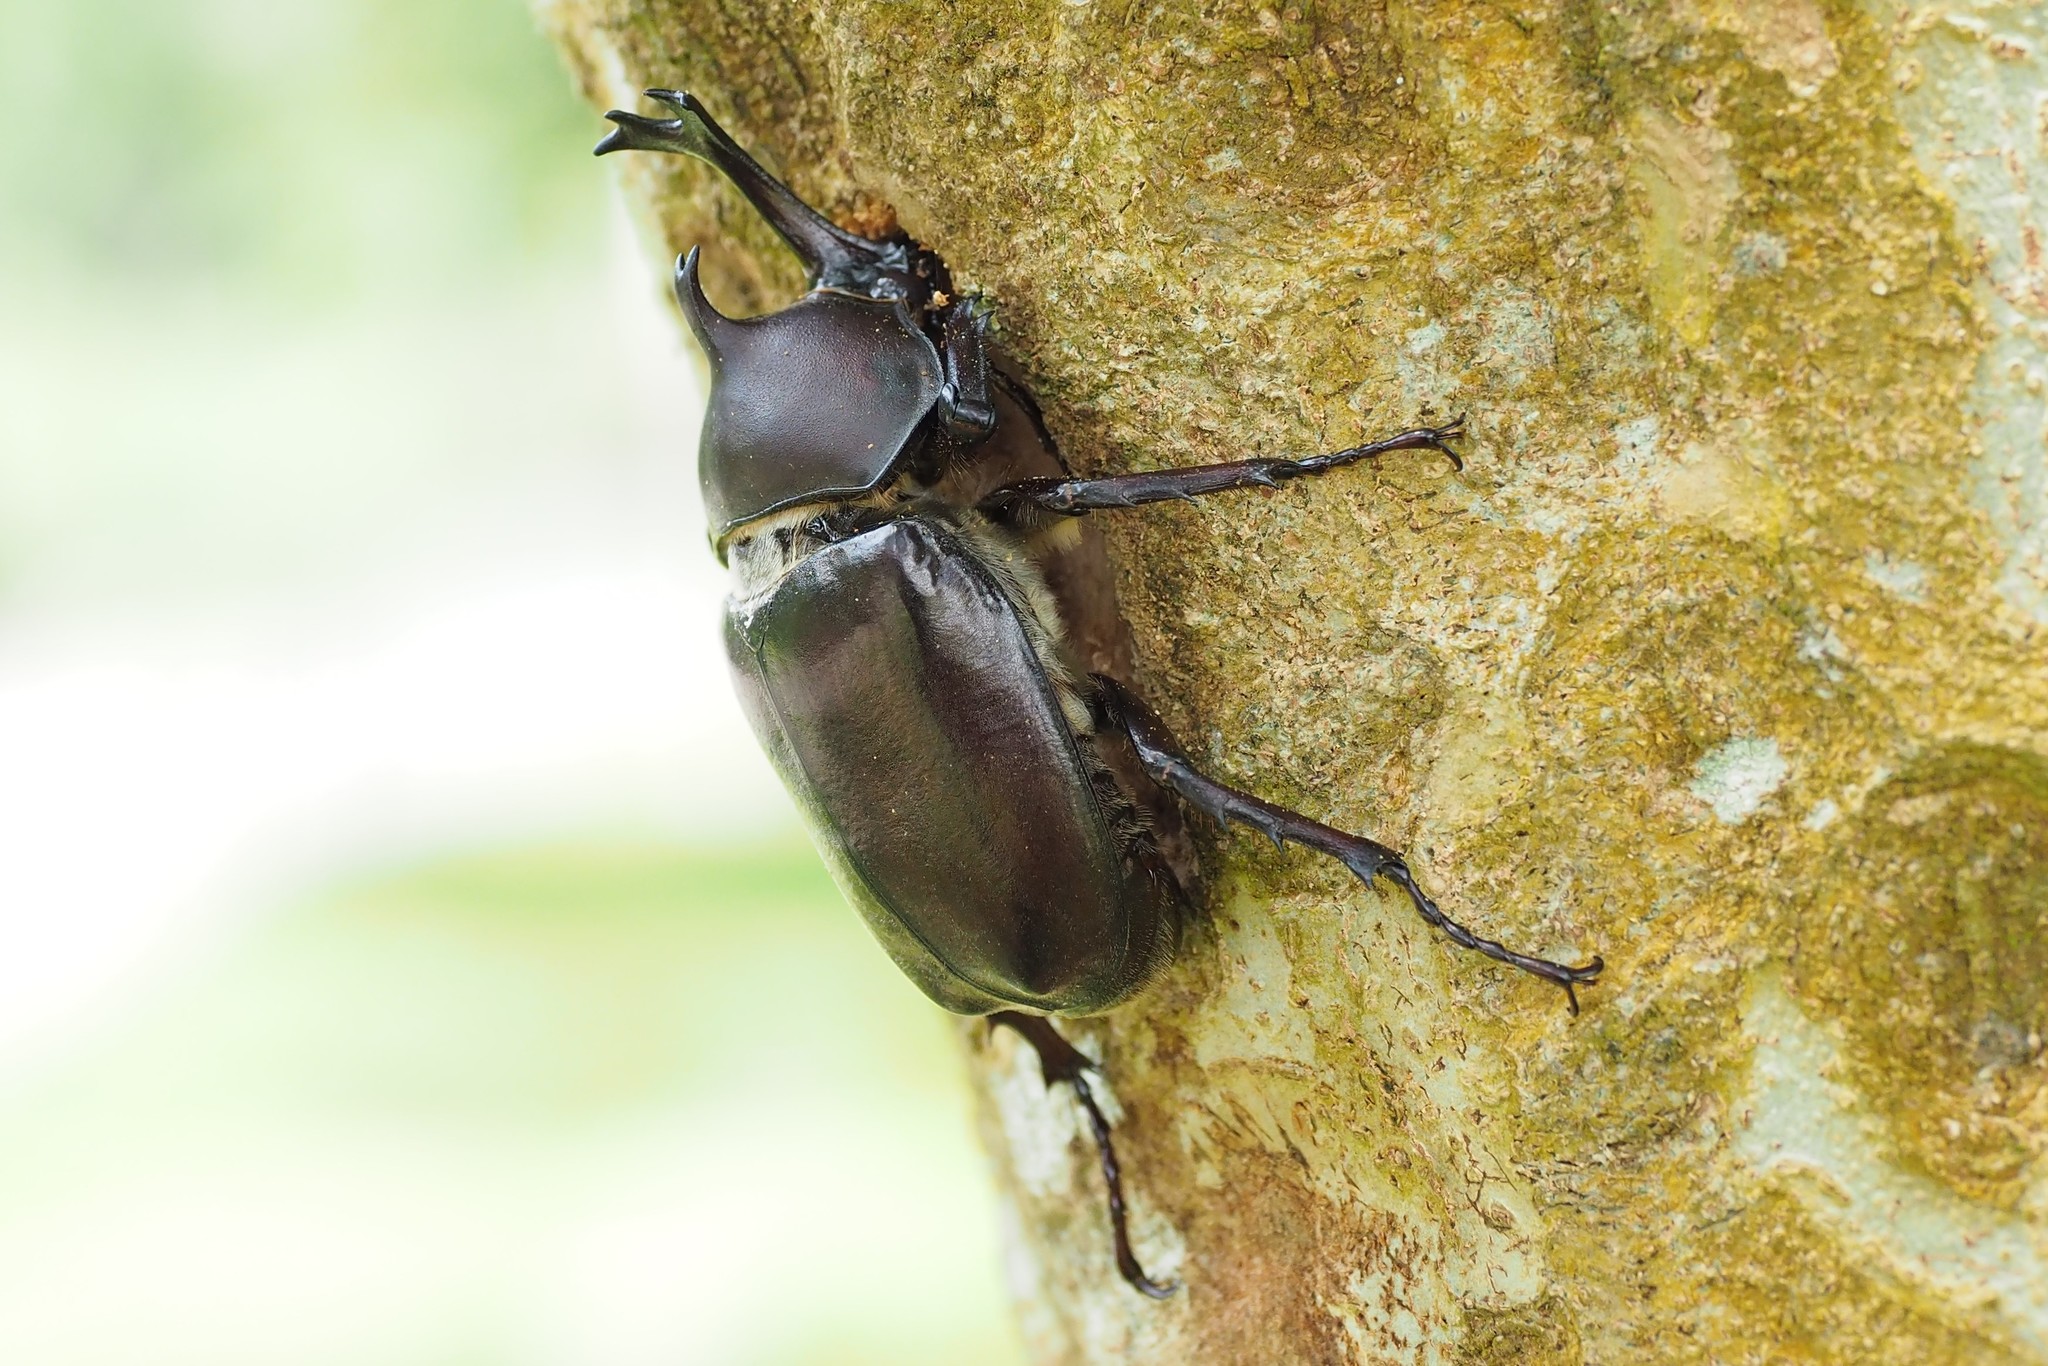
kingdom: Animalia
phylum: Arthropoda
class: Insecta
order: Coleoptera
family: Scarabaeidae
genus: Trypoxylus
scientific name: Trypoxylus dichotomus
